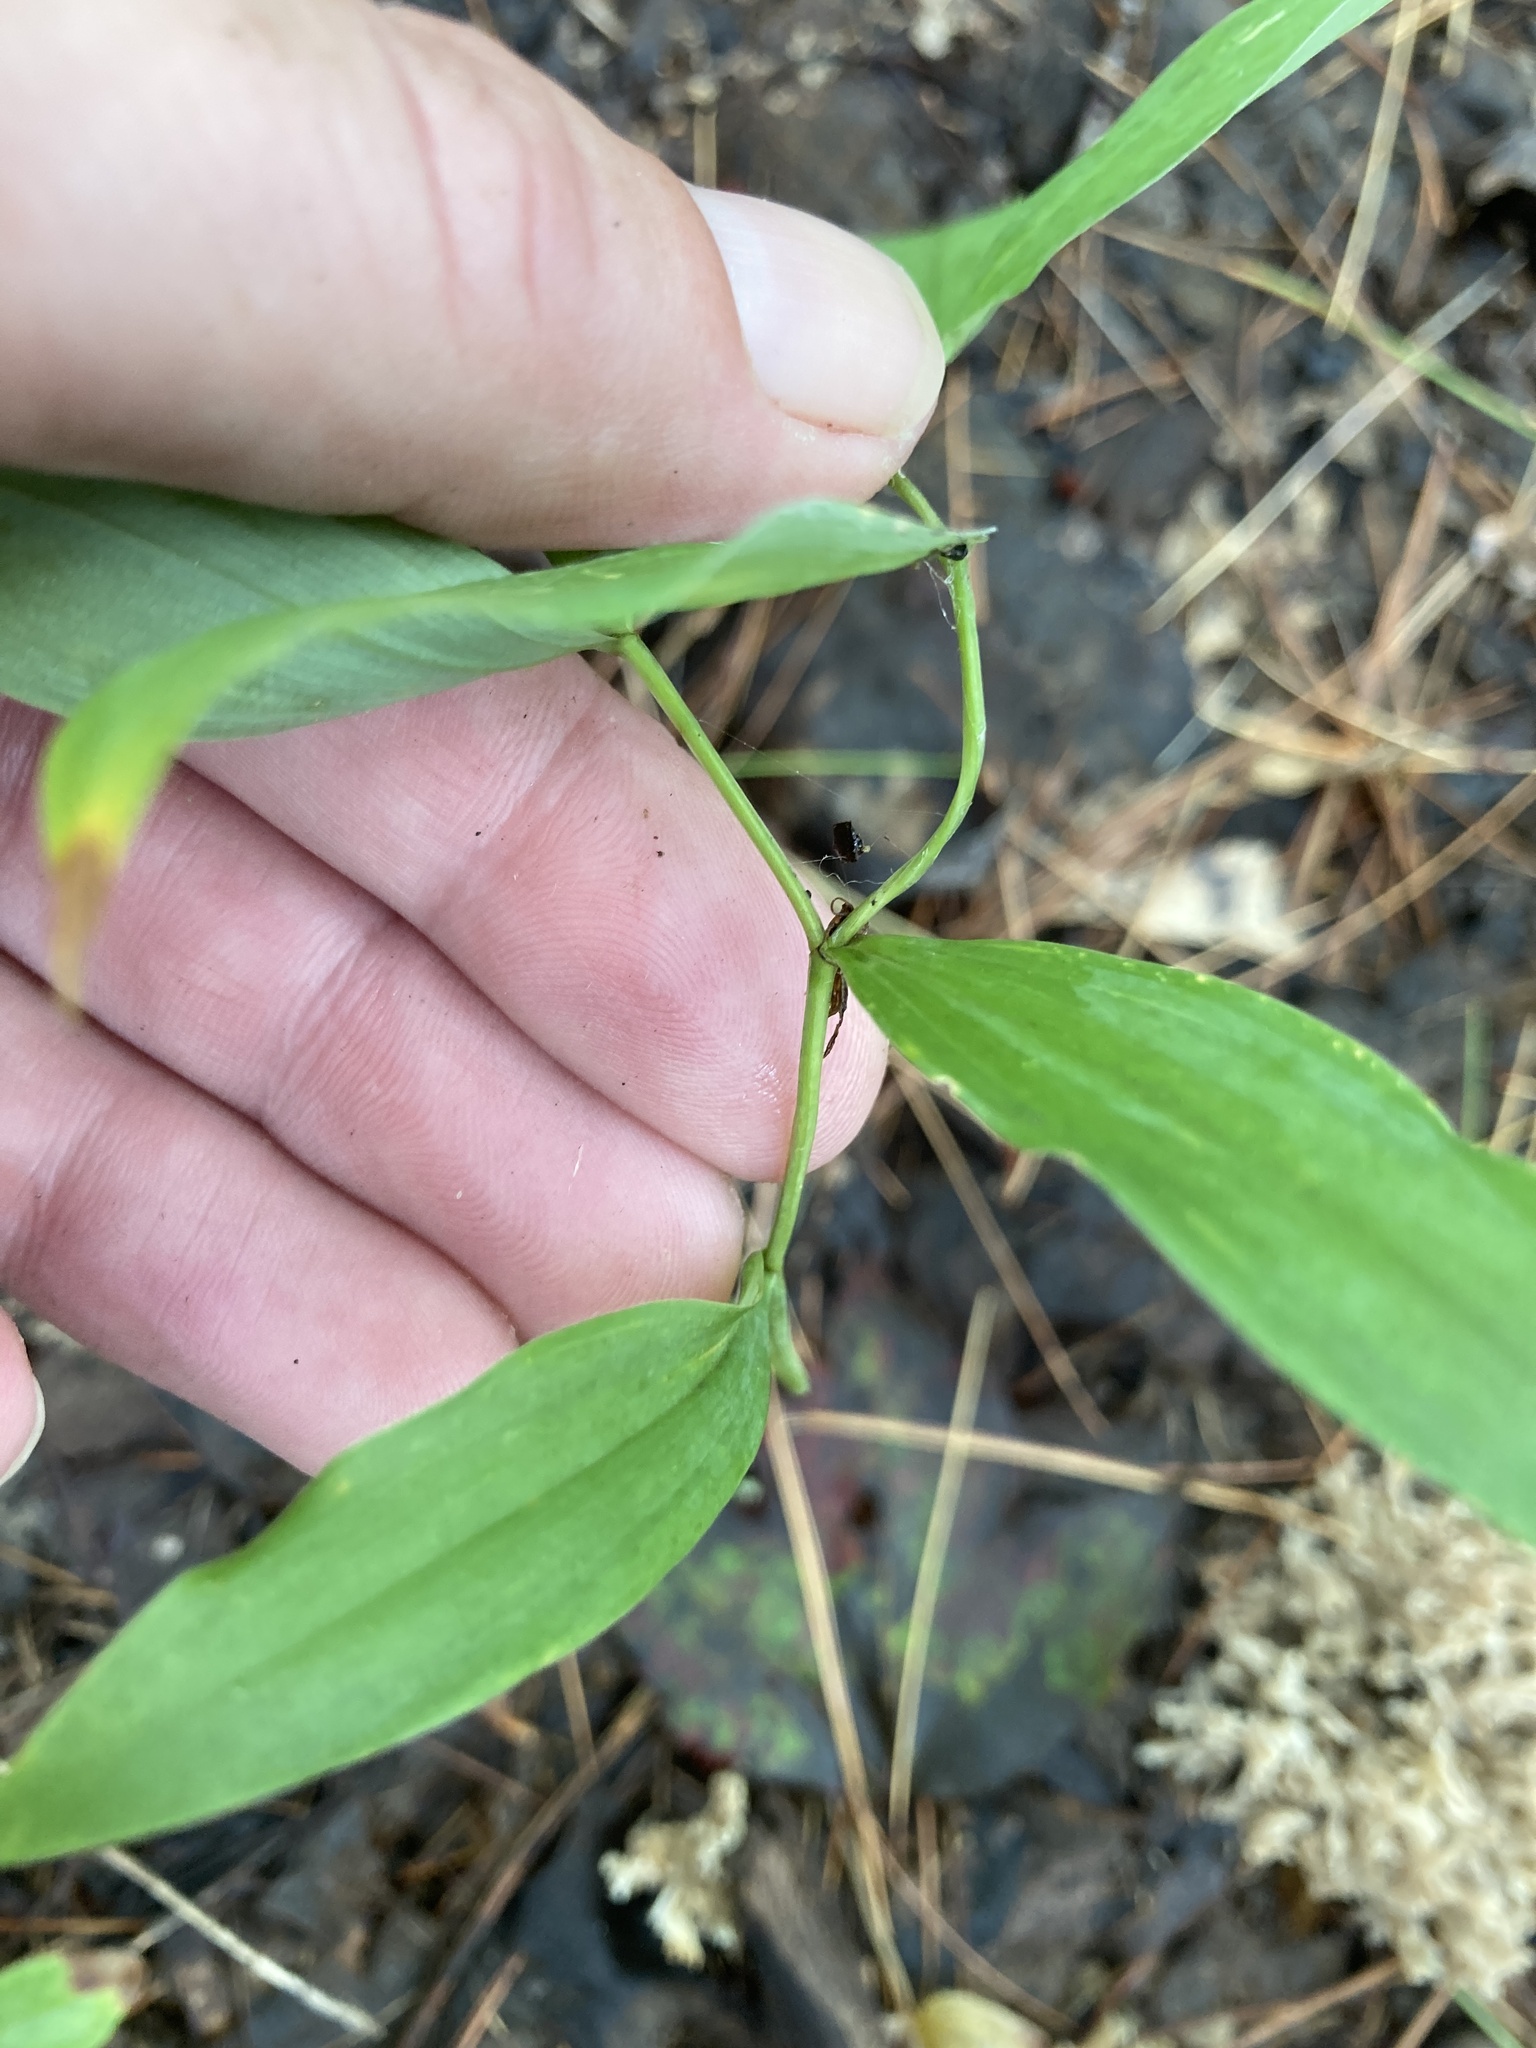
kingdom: Plantae
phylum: Tracheophyta
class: Liliopsida
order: Liliales
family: Colchicaceae
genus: Uvularia
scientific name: Uvularia sessilifolia
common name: Straw-lily
